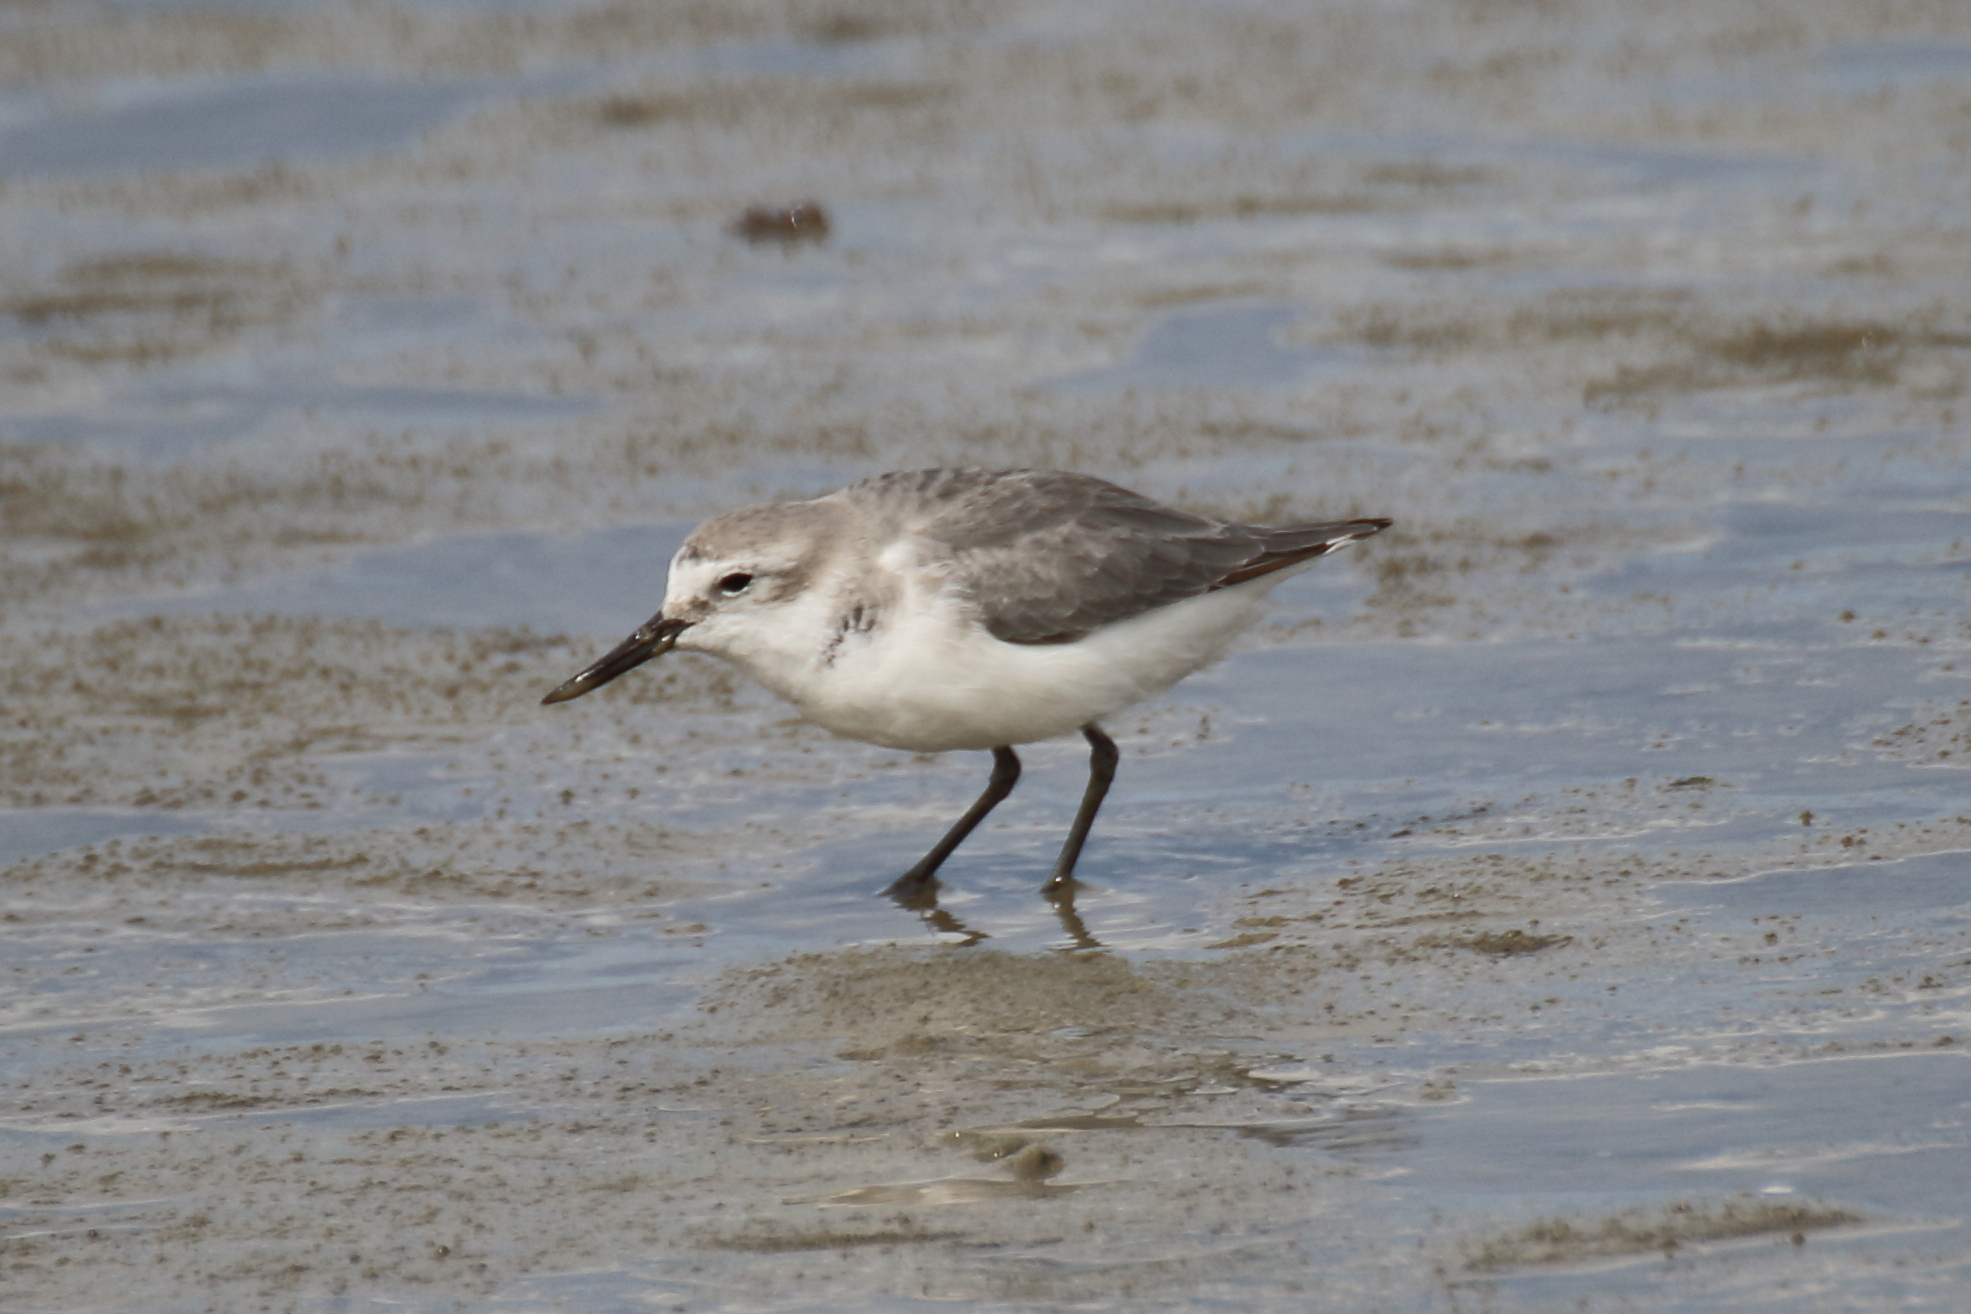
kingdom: Animalia
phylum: Chordata
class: Aves
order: Charadriiformes
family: Charadriidae
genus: Anarhynchus
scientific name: Anarhynchus frontalis
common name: Wrybill
